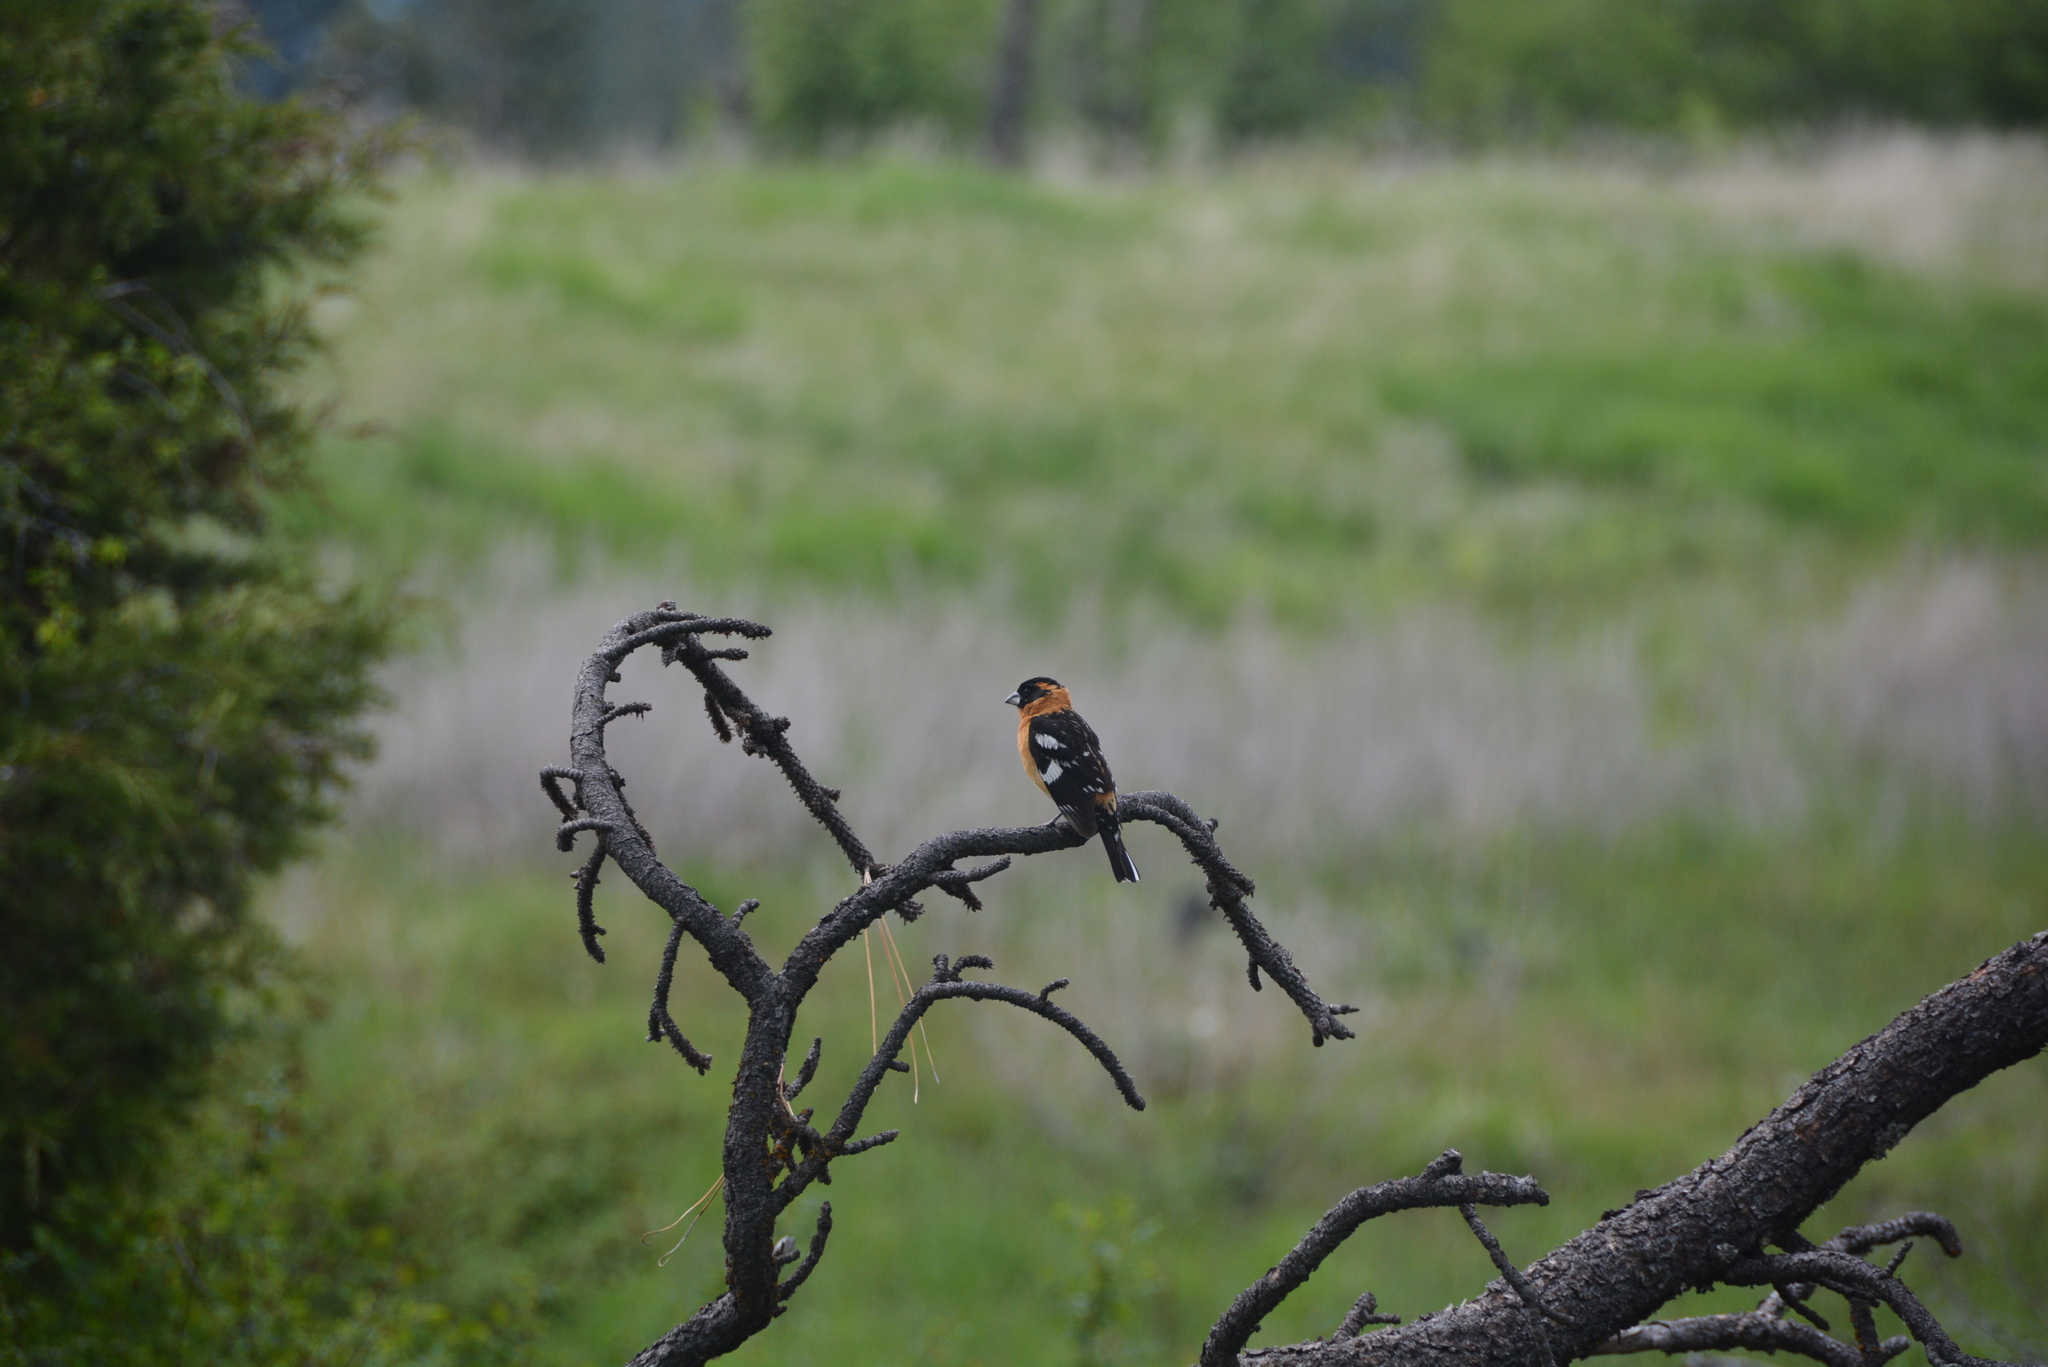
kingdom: Animalia
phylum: Chordata
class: Aves
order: Passeriformes
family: Cardinalidae
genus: Pheucticus
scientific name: Pheucticus melanocephalus
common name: Black-headed grosbeak
